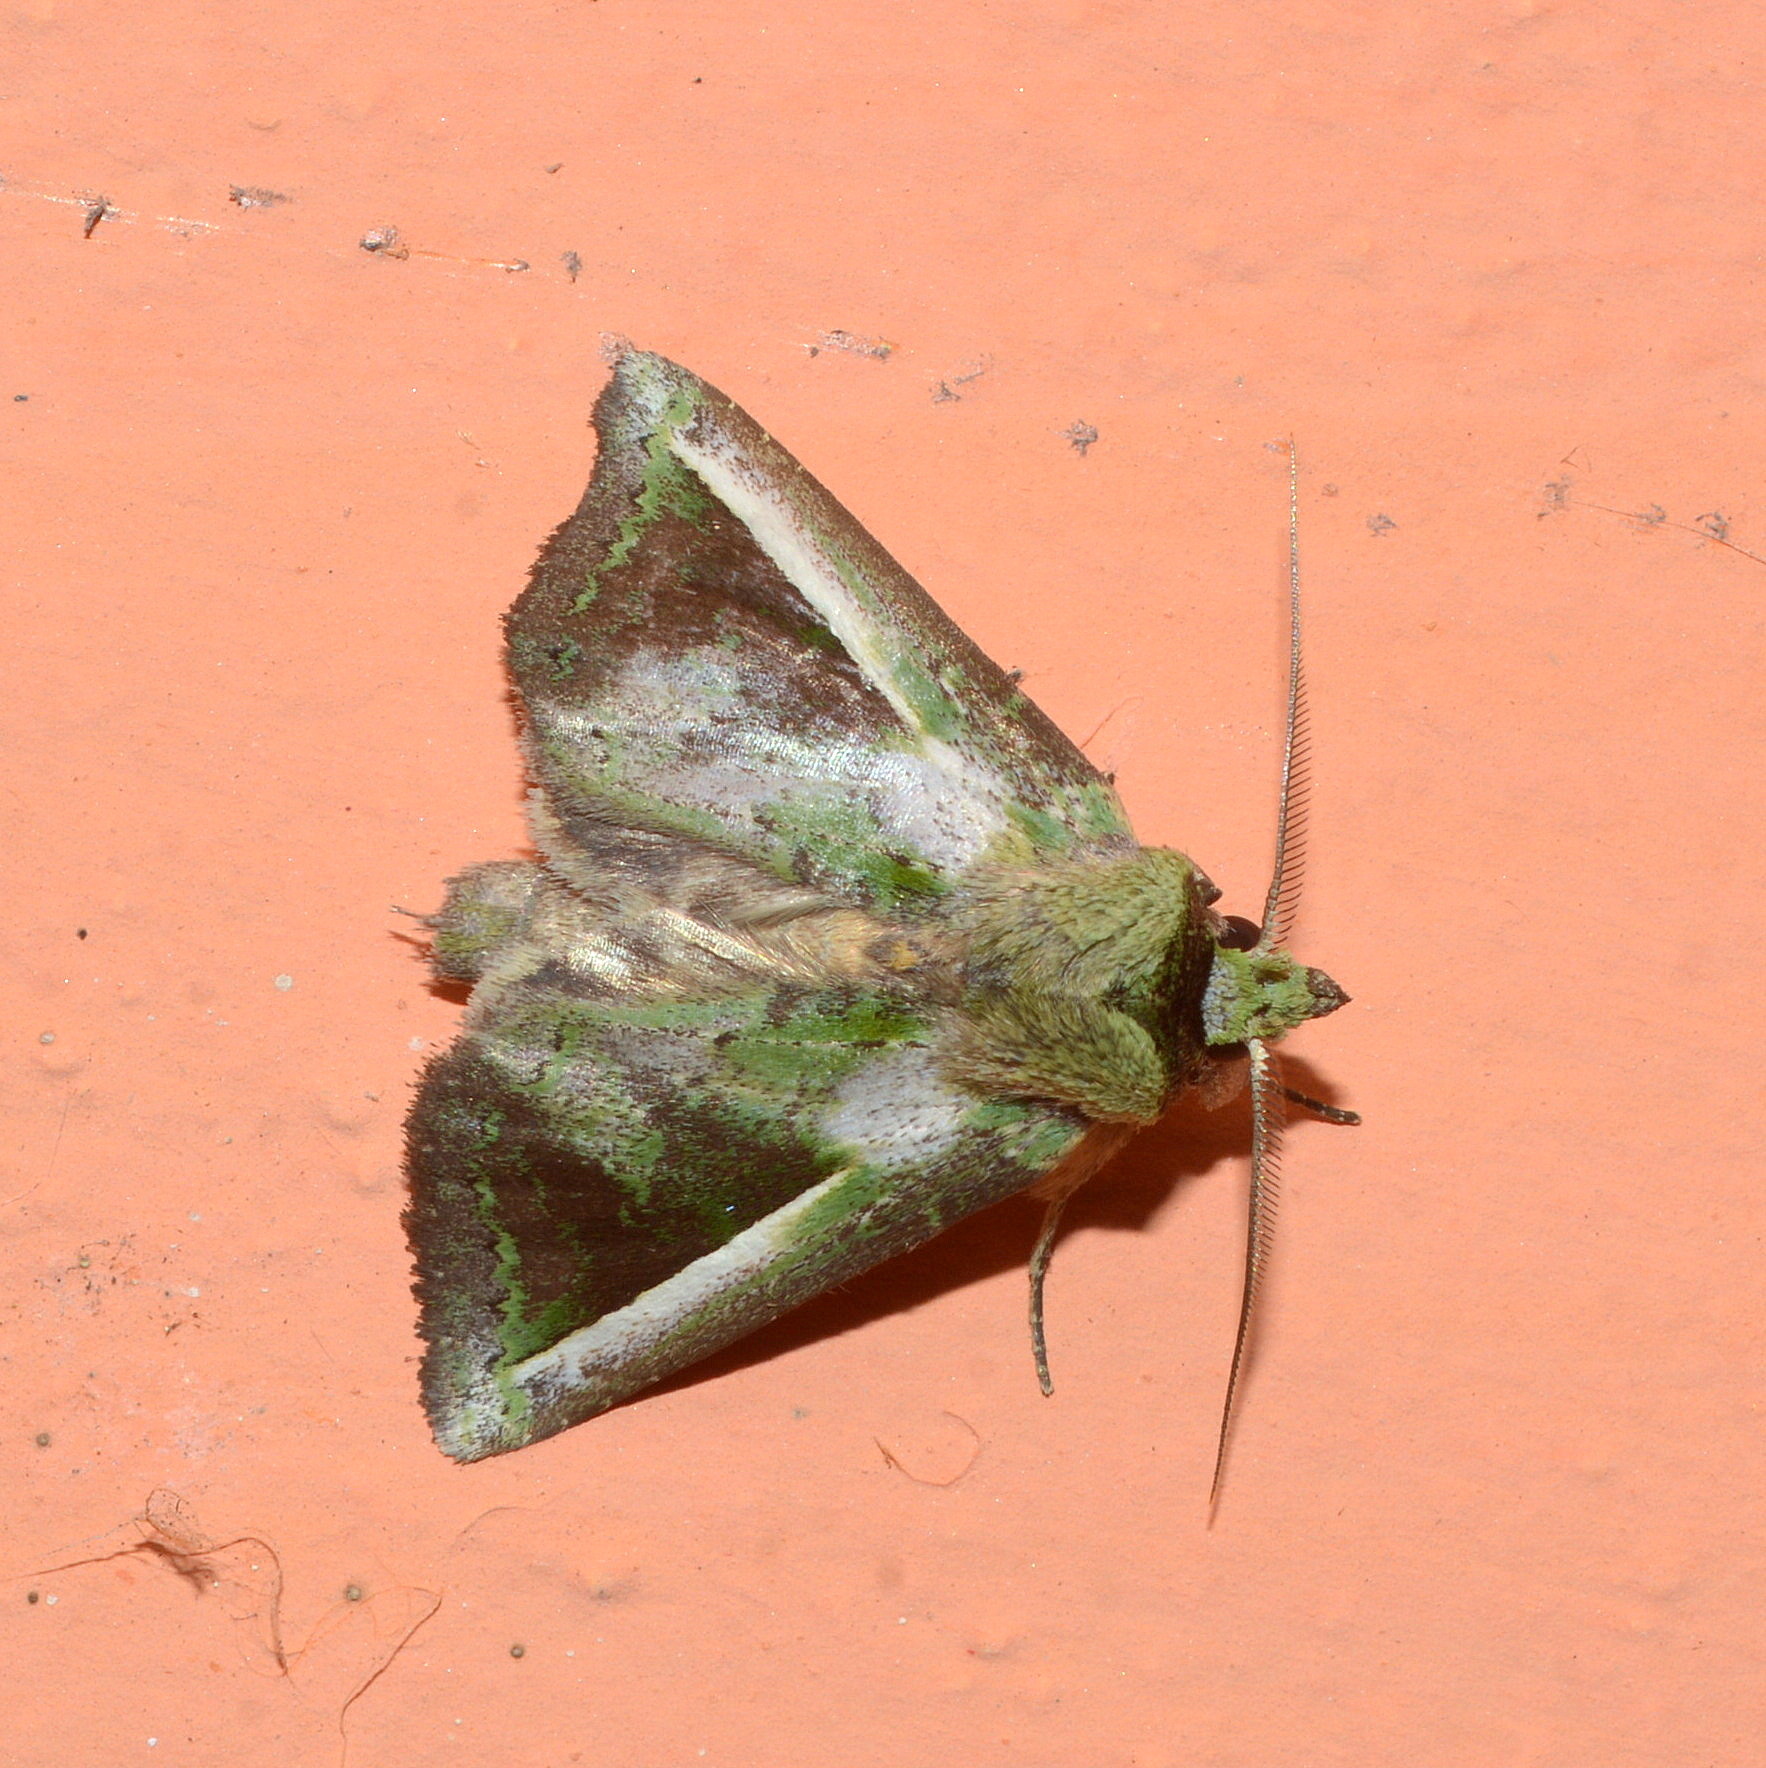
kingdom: Animalia
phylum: Arthropoda
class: Insecta
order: Lepidoptera
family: Notodontidae
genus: Gopha
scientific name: Gopha mixtipennis
